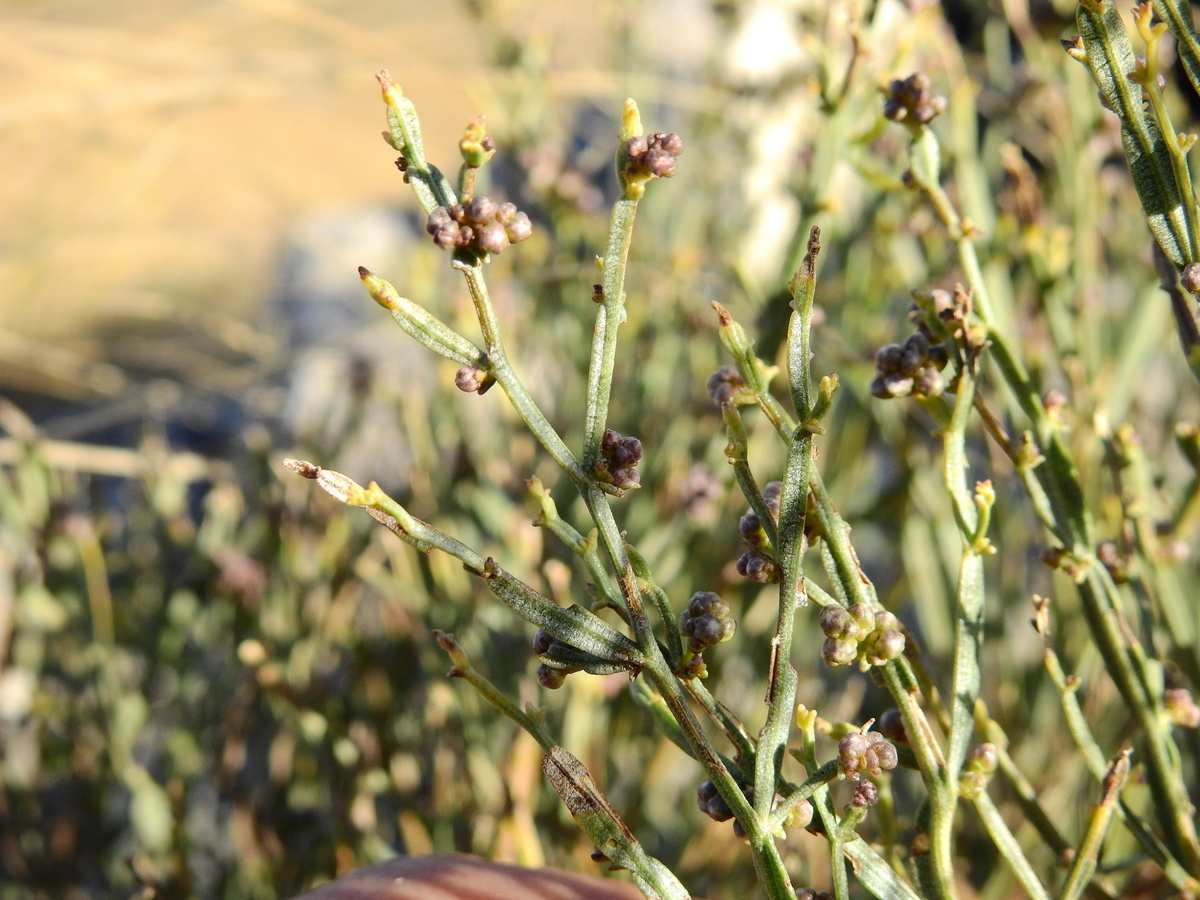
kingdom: Plantae
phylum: Tracheophyta
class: Magnoliopsida
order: Asterales
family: Asteraceae
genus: Baccharis
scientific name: Baccharis articulata
